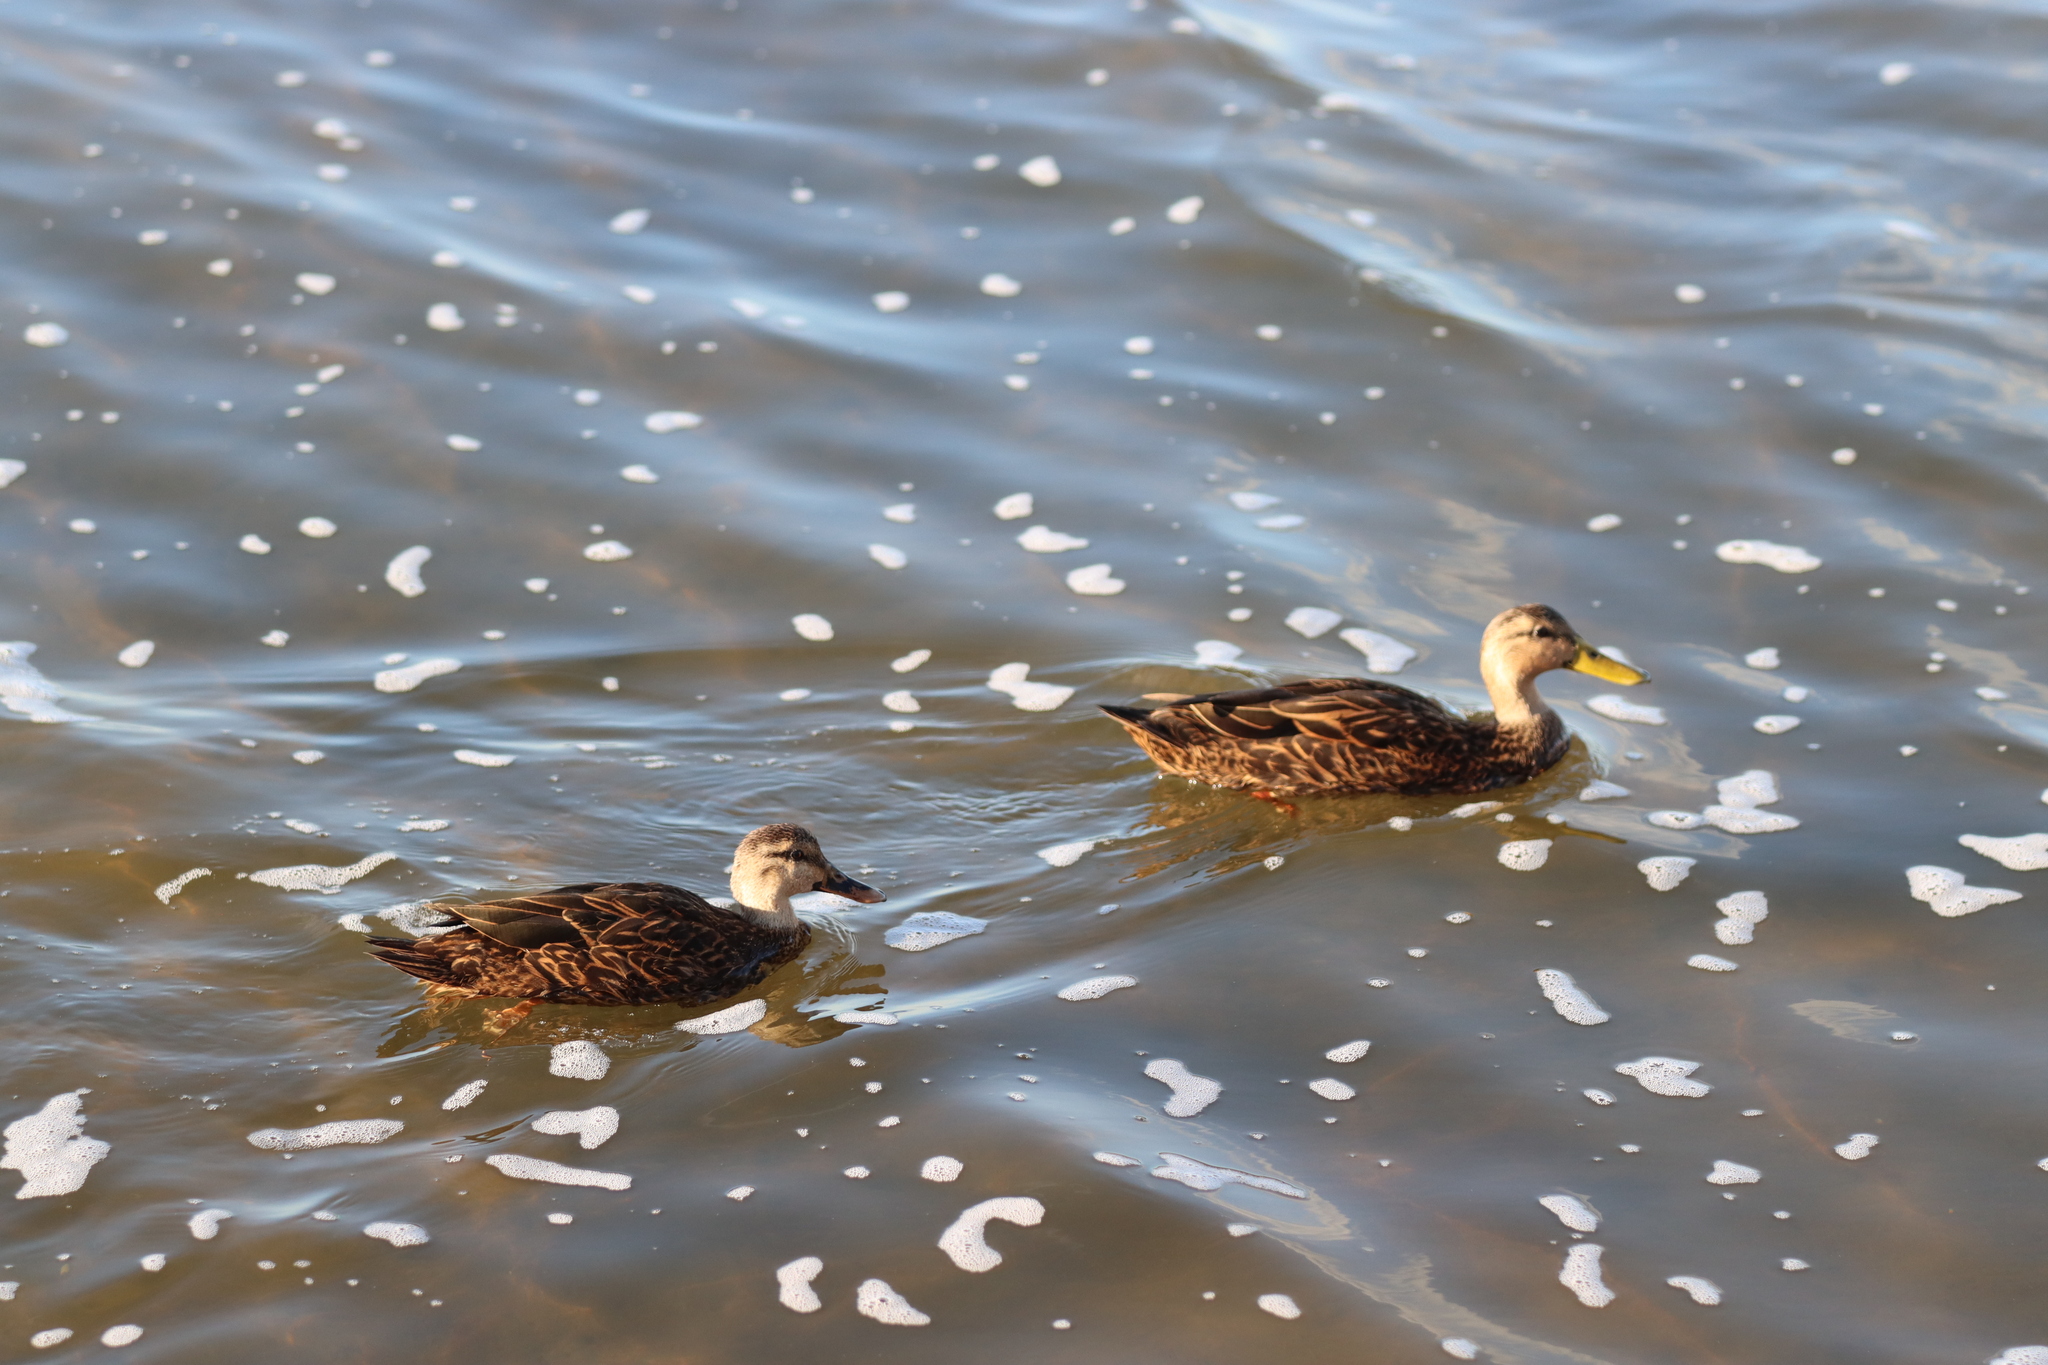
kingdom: Animalia
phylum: Chordata
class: Aves
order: Anseriformes
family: Anatidae
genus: Anas
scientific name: Anas fulvigula
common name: Mottled duck
